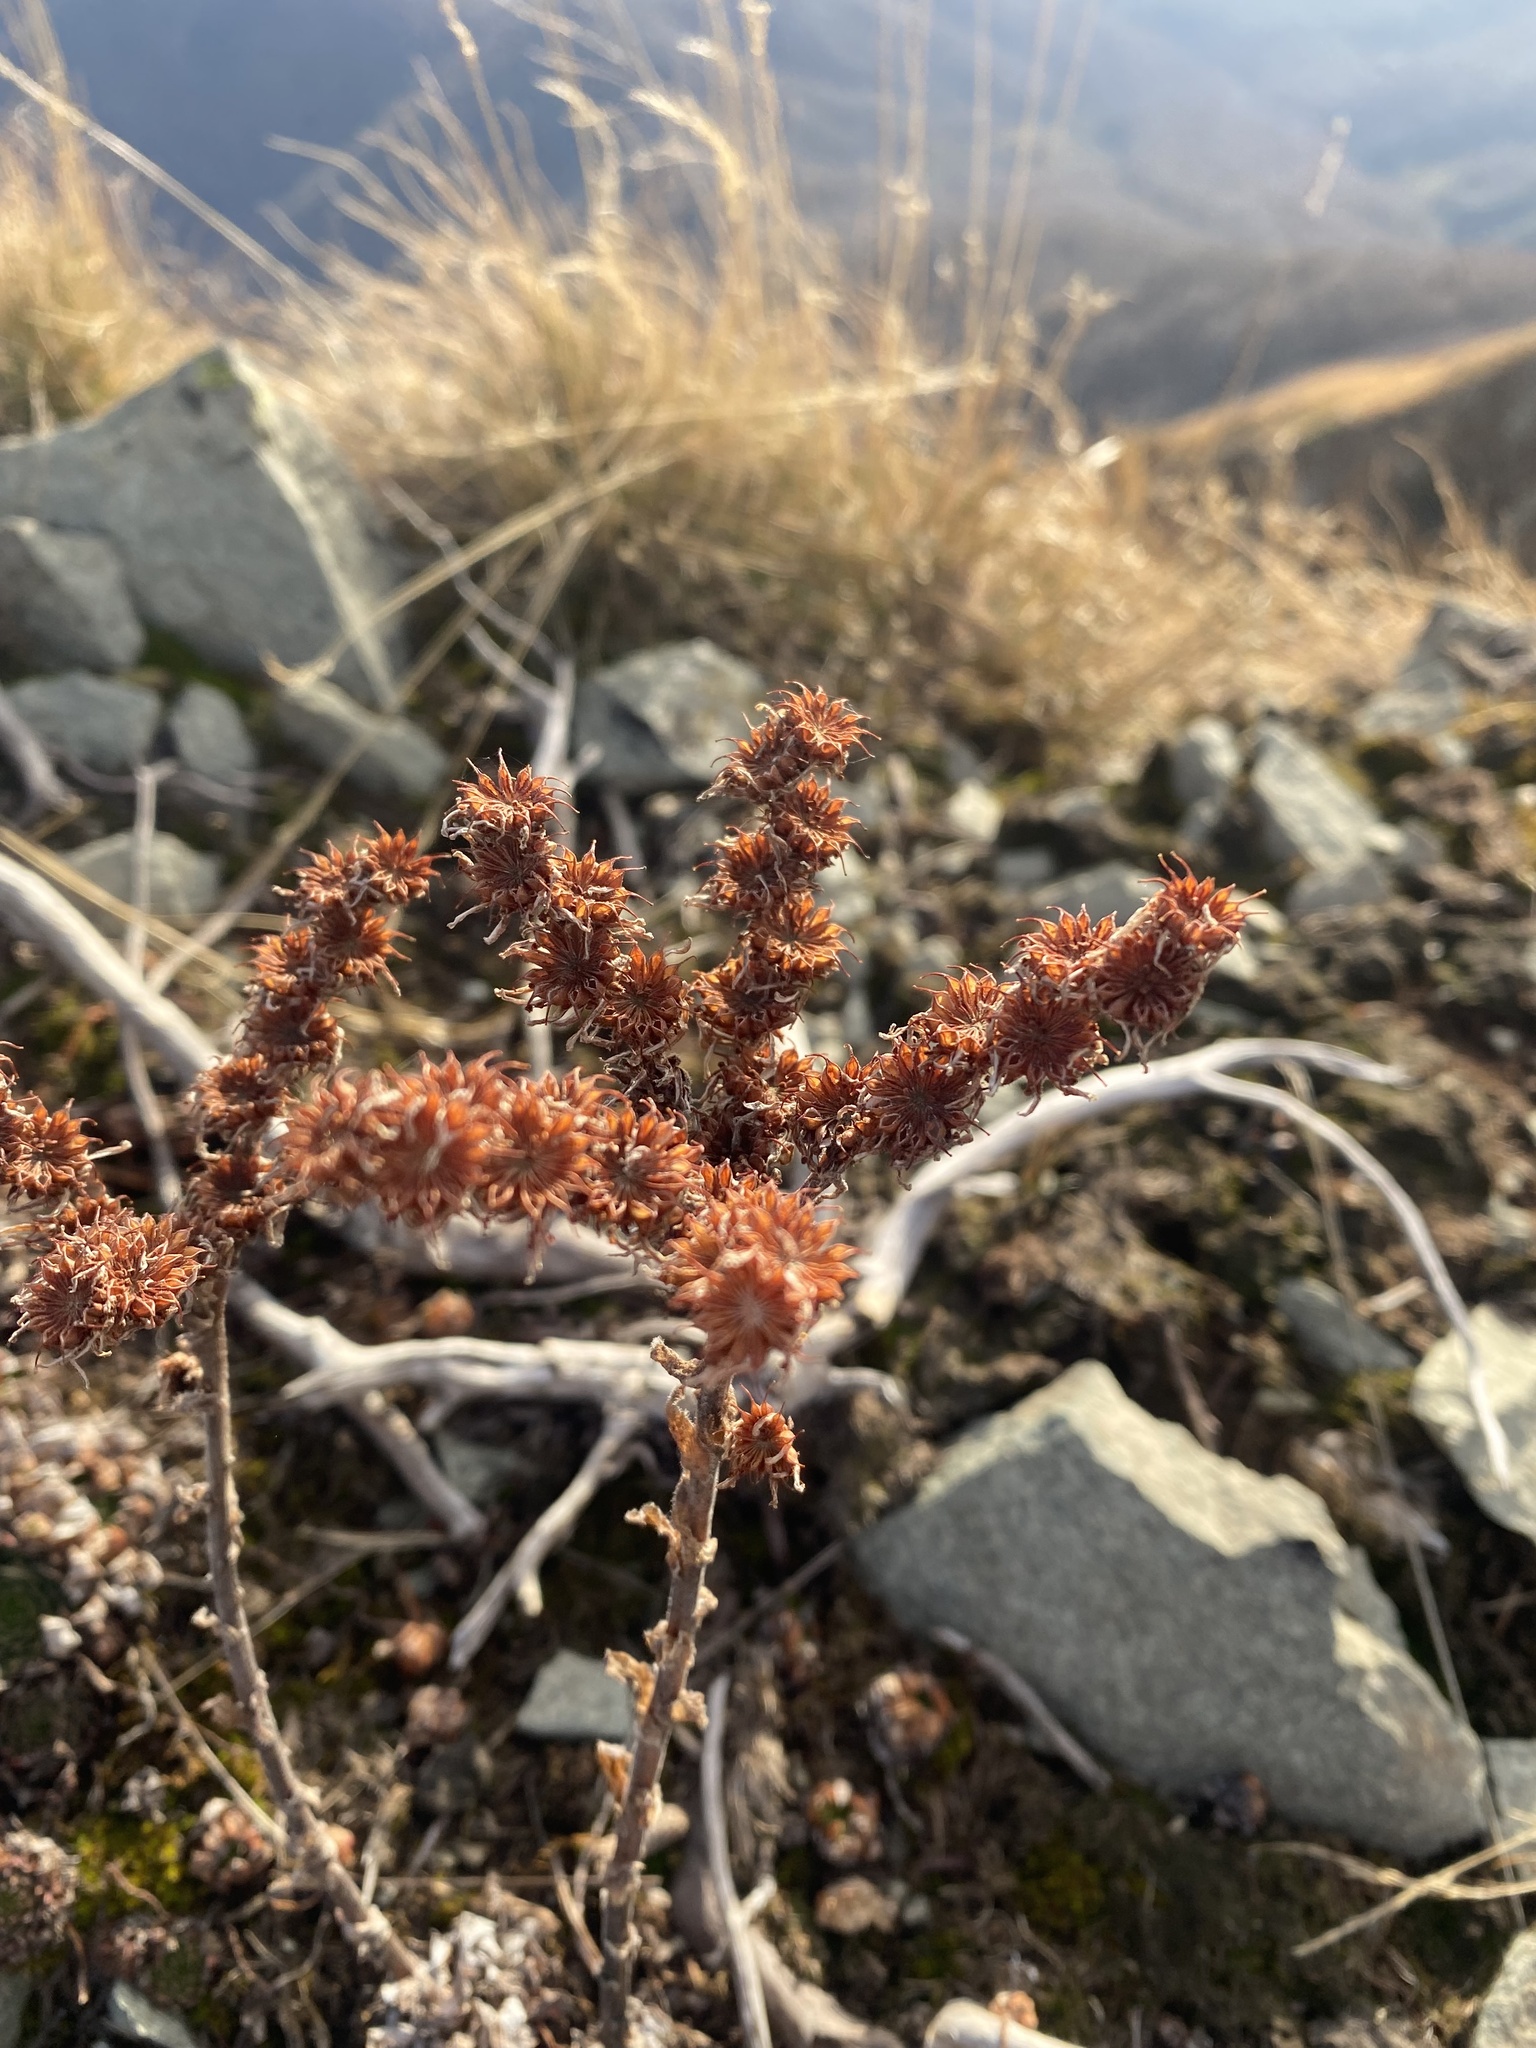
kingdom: Plantae
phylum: Tracheophyta
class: Magnoliopsida
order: Saxifragales
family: Crassulaceae
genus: Sempervivum
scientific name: Sempervivum caucasicum
